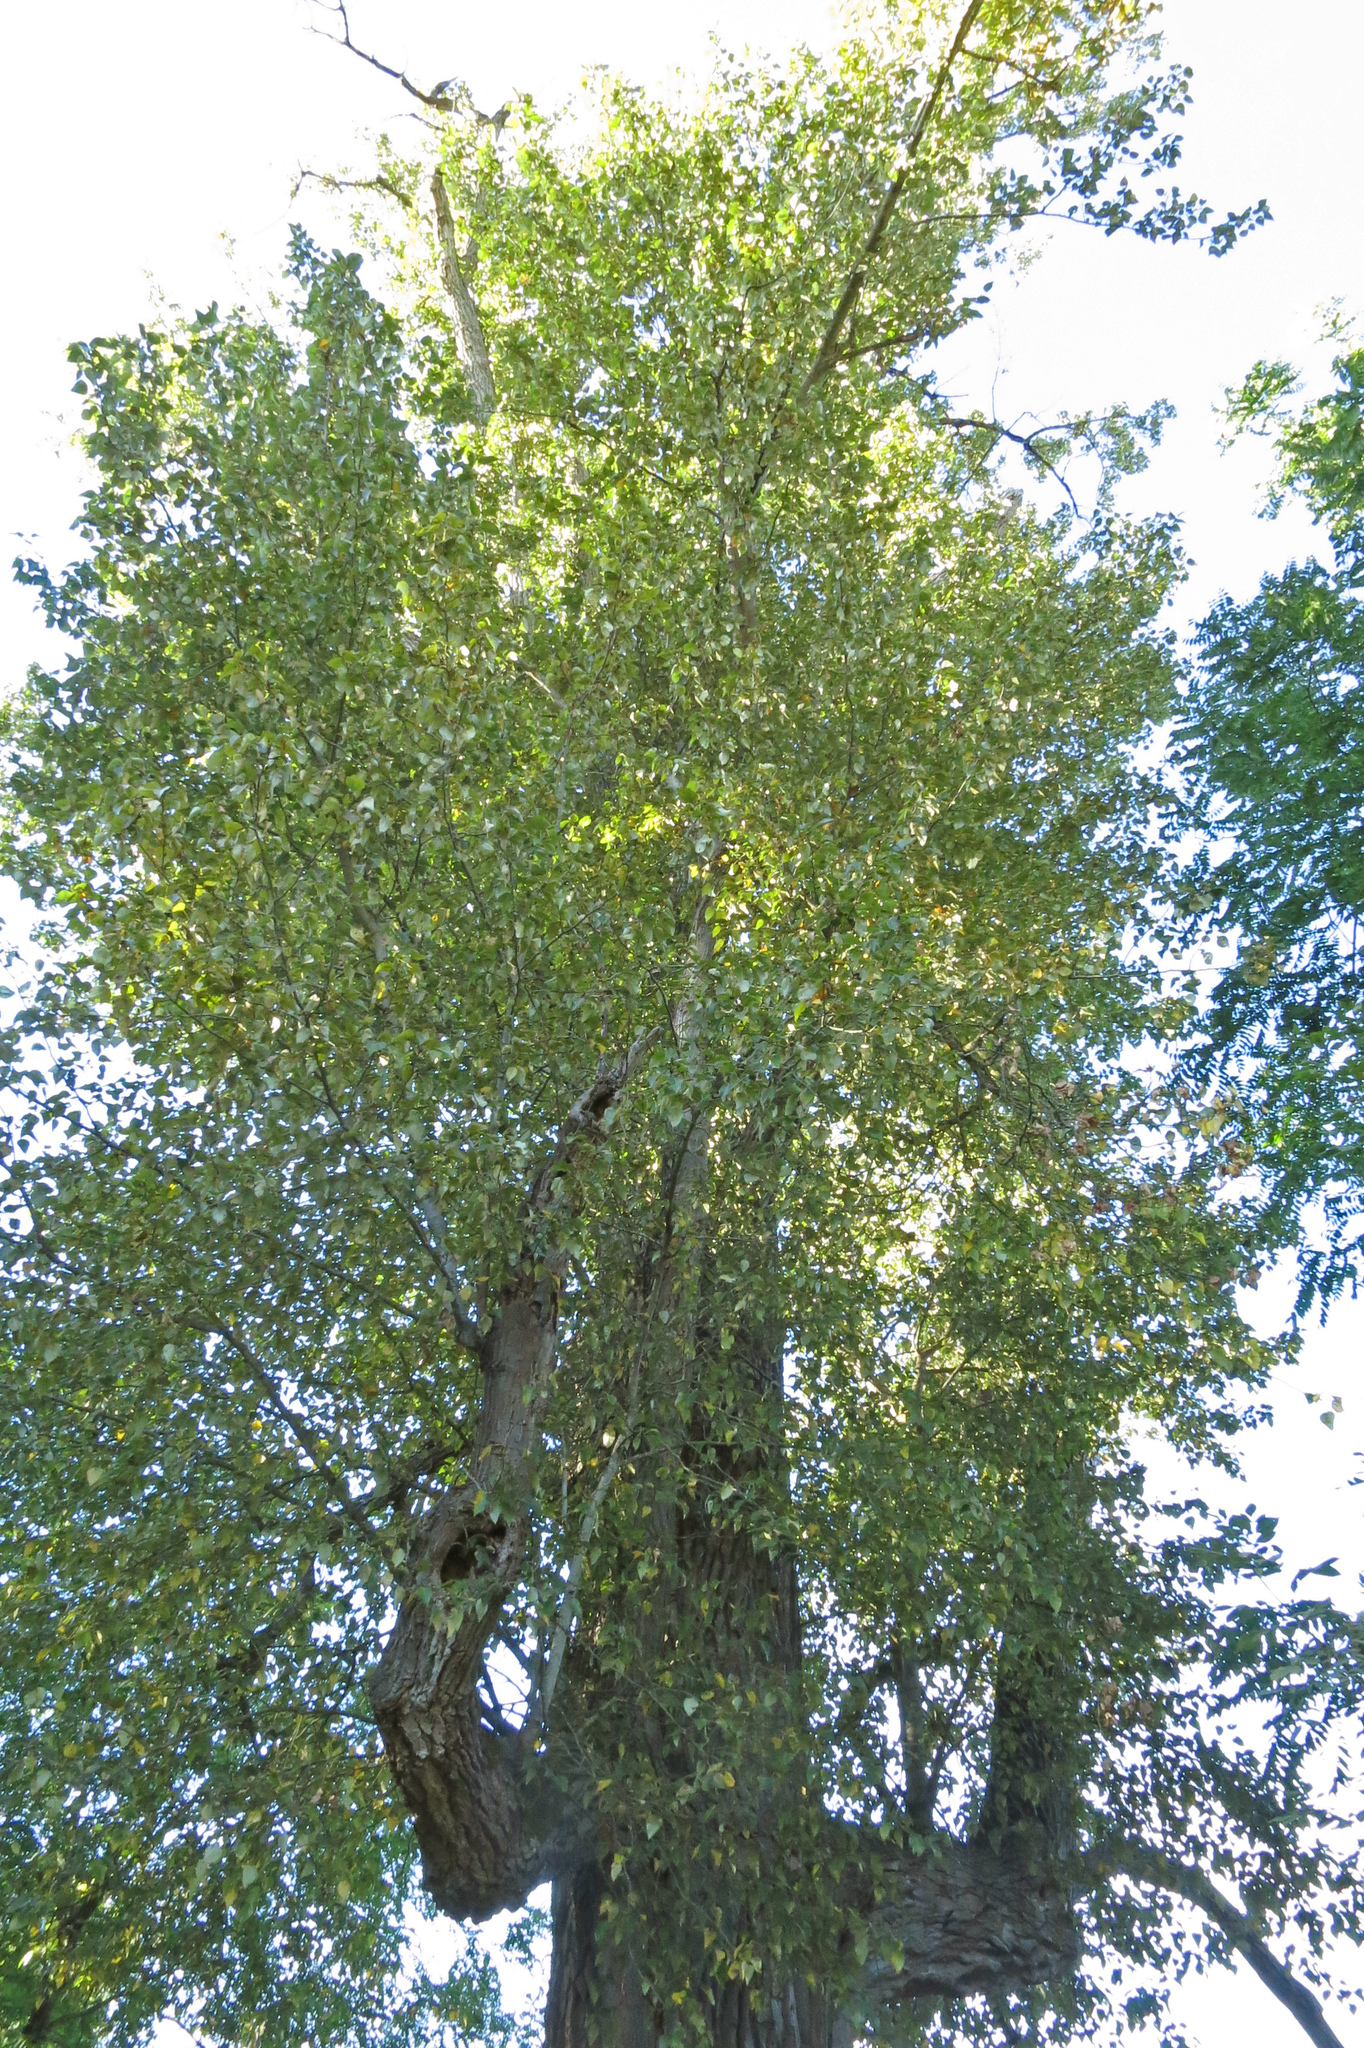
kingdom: Plantae
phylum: Tracheophyta
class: Magnoliopsida
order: Malpighiales
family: Salicaceae
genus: Populus
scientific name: Populus trichocarpa
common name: Black cottonwood
